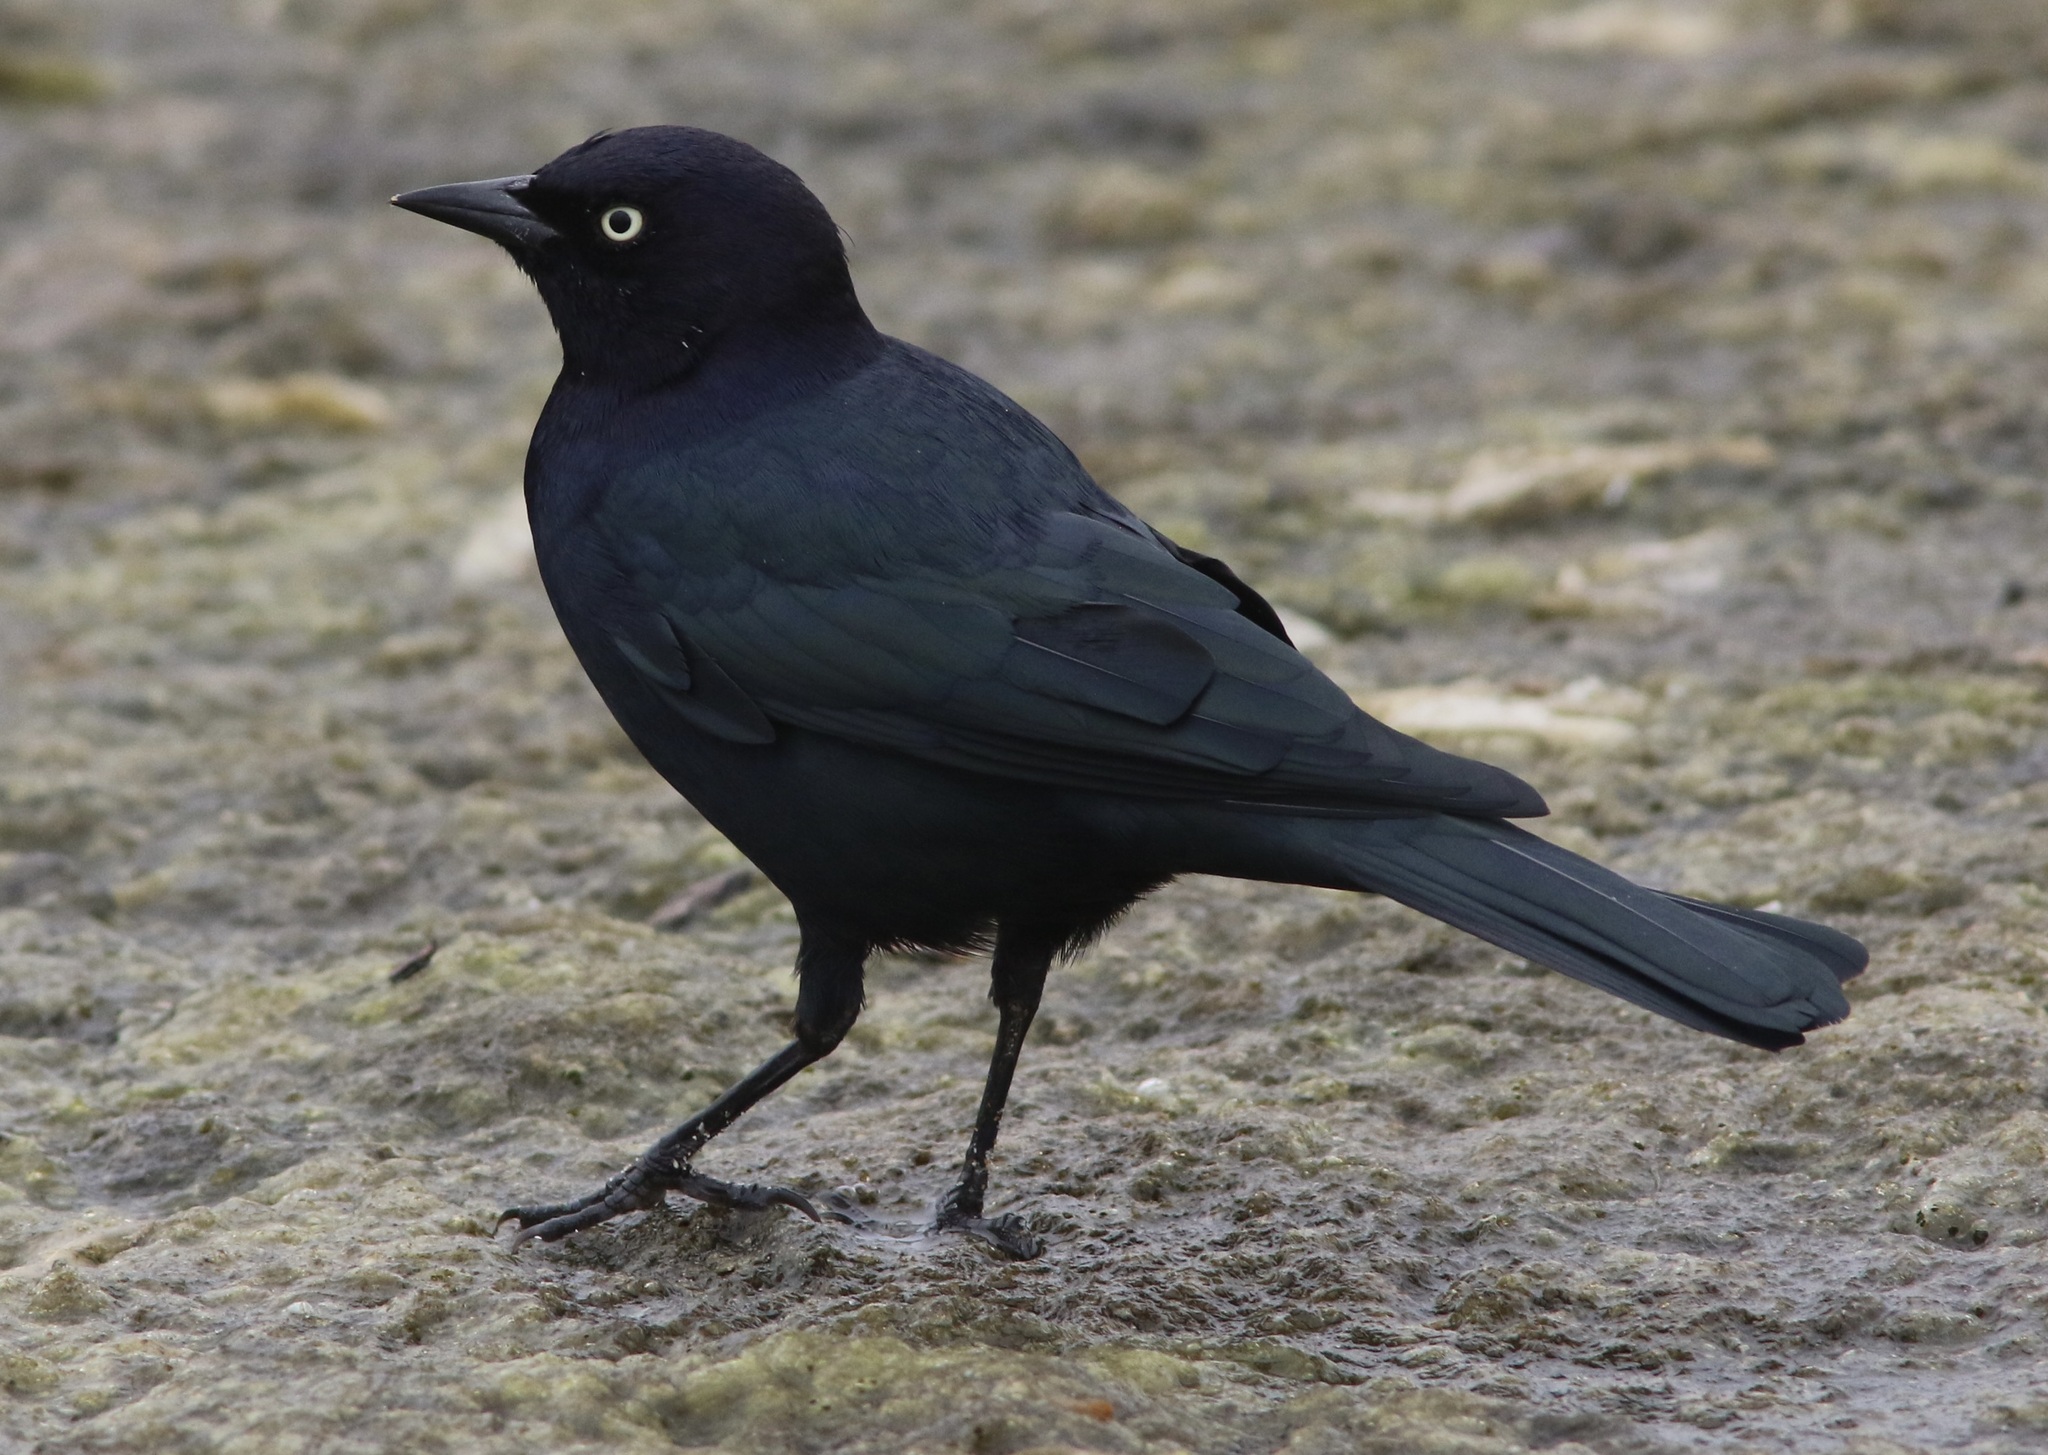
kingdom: Animalia
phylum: Chordata
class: Aves
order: Passeriformes
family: Icteridae
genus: Euphagus
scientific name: Euphagus cyanocephalus
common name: Brewer's blackbird
